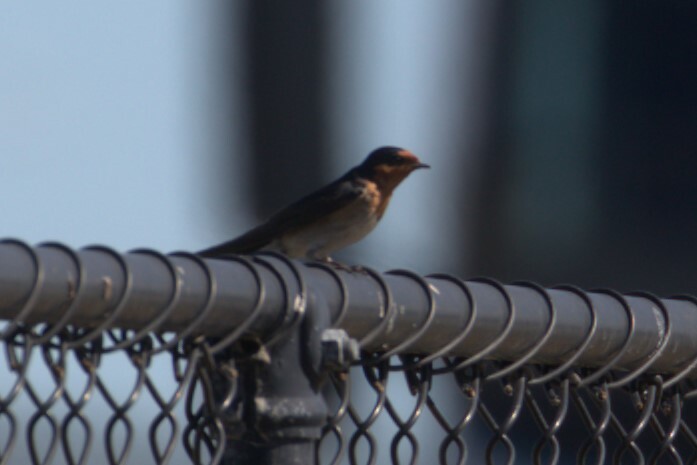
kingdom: Animalia
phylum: Chordata
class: Aves
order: Passeriformes
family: Hirundinidae
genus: Hirundo
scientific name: Hirundo neoxena
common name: Welcome swallow
